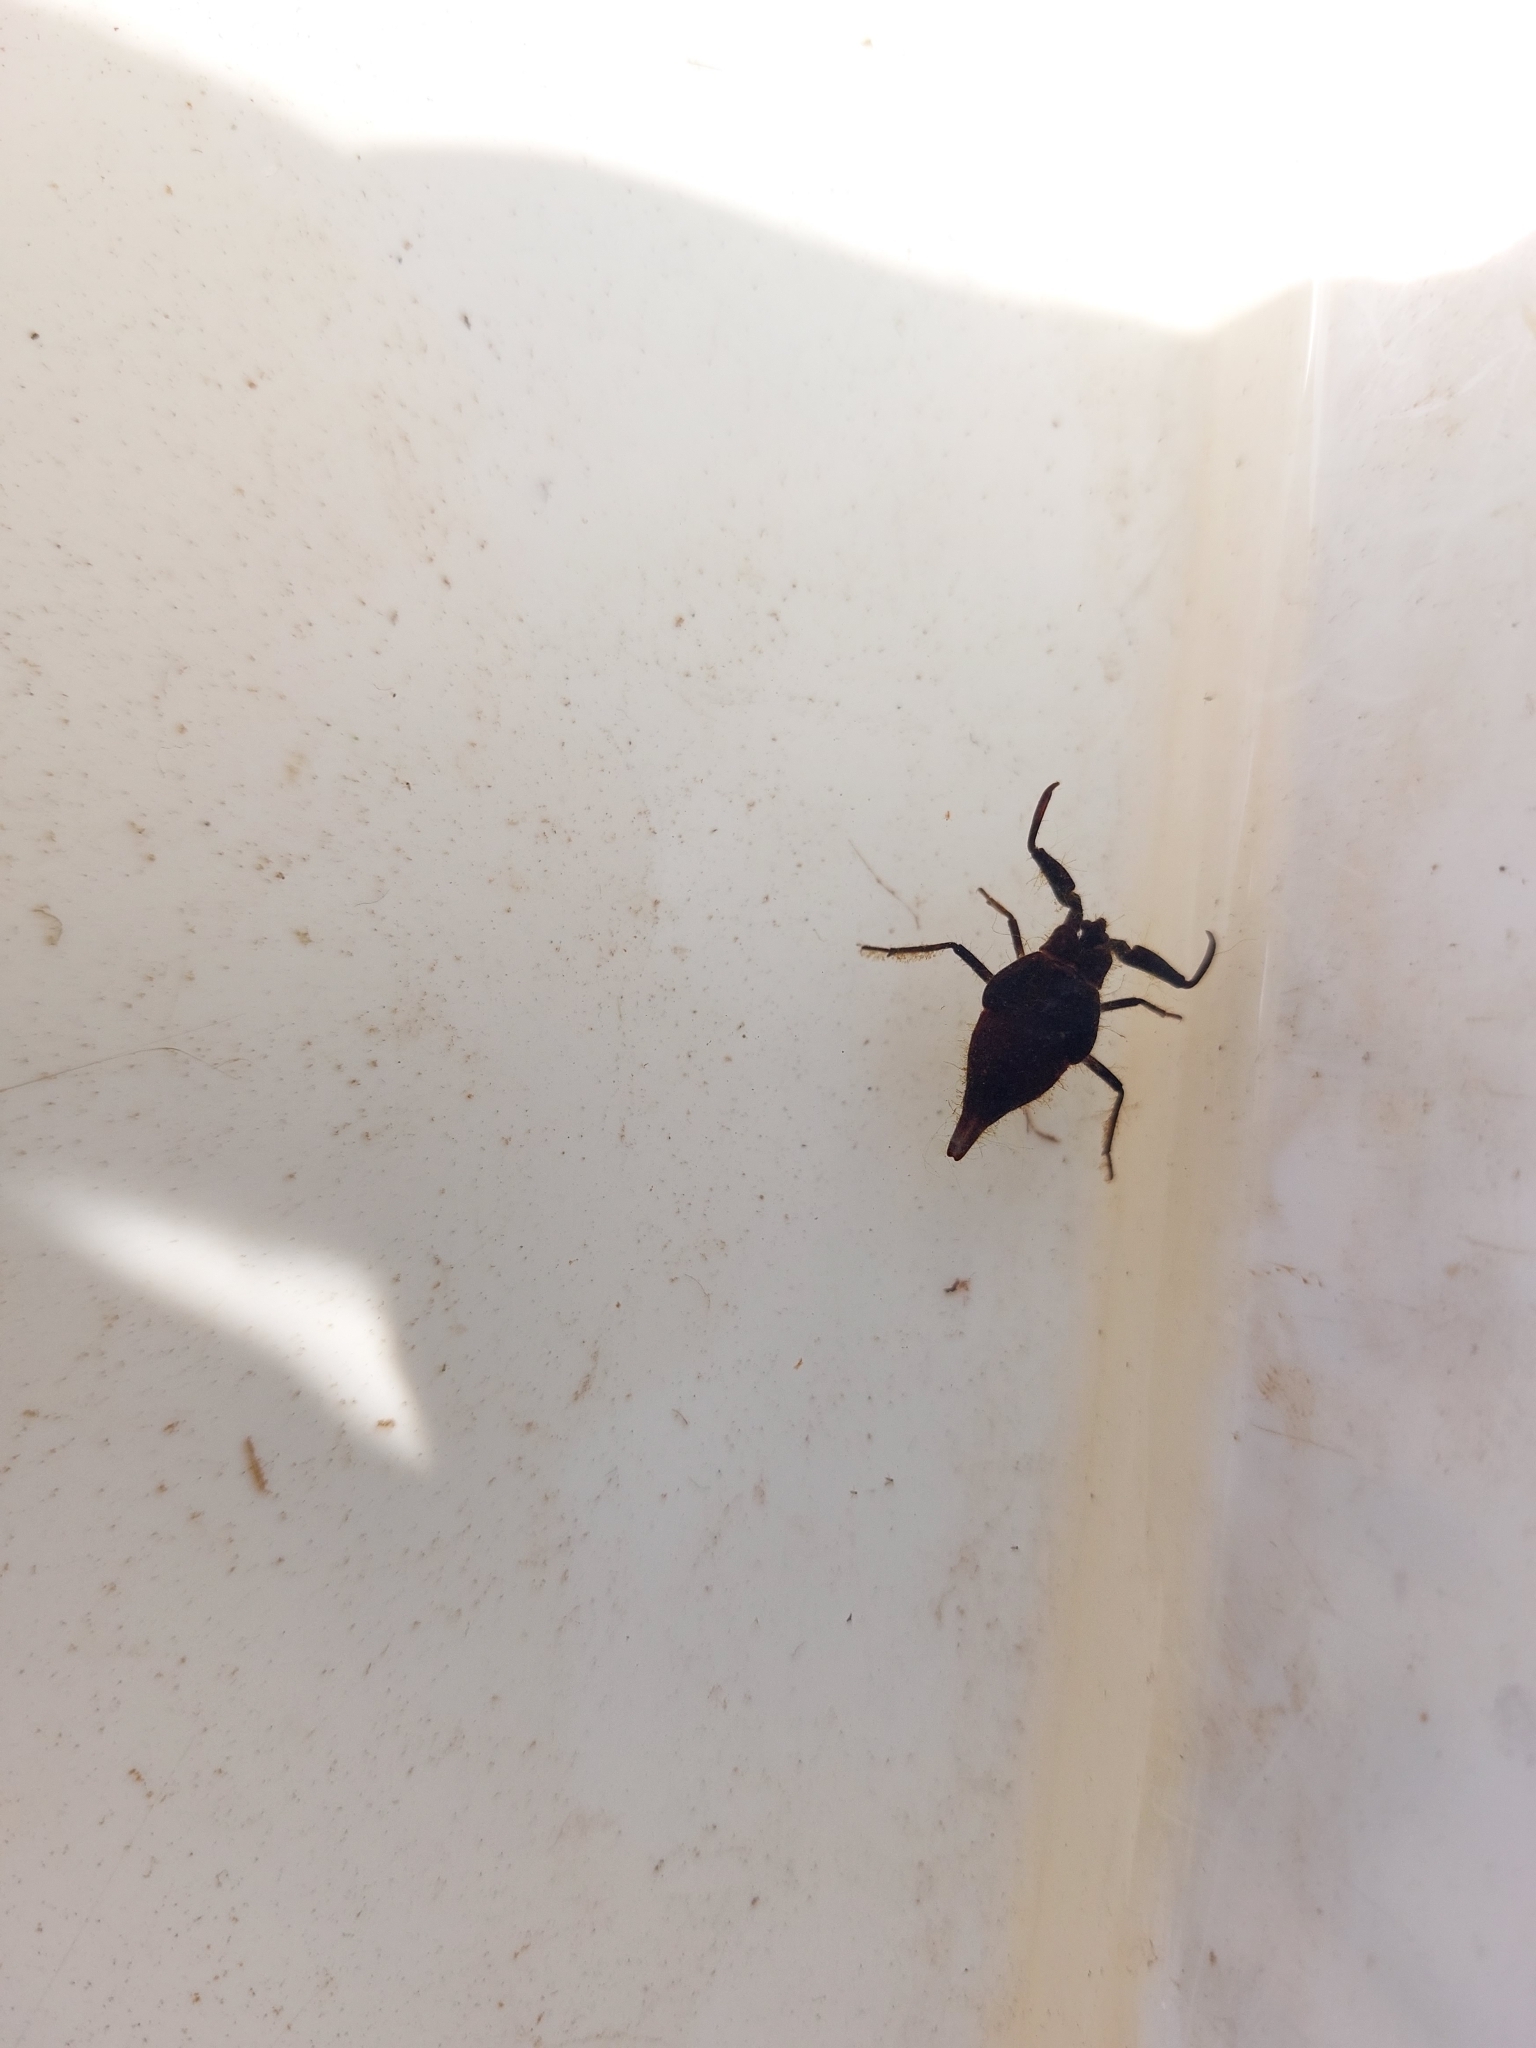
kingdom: Animalia
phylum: Arthropoda
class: Insecta
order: Hemiptera
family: Nepidae
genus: Nepa
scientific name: Nepa cinerea
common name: Water scorpion
